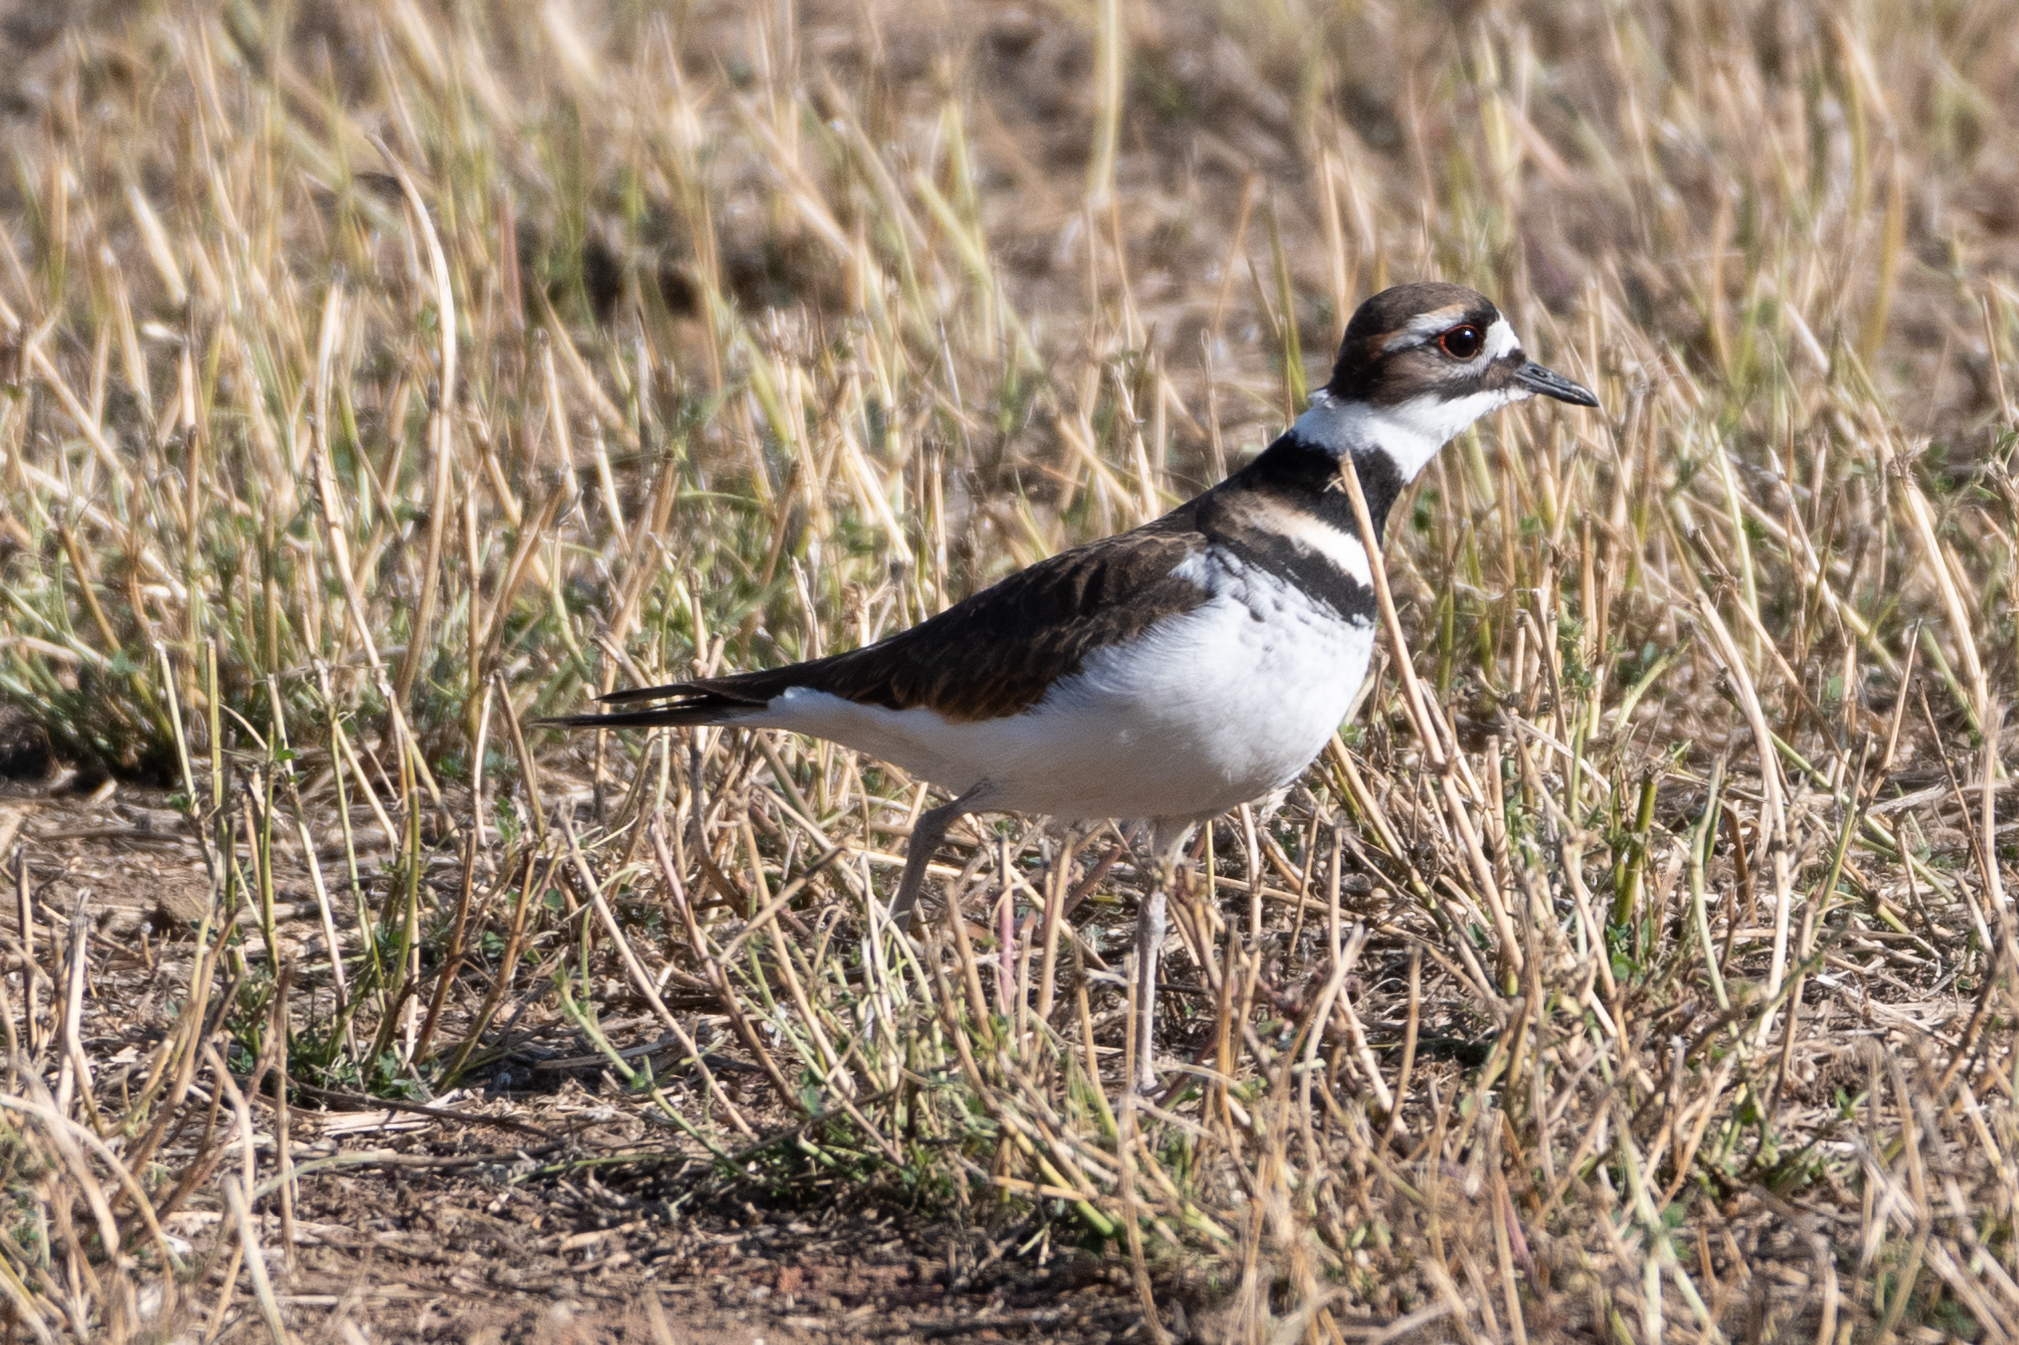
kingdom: Animalia
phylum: Chordata
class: Aves
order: Charadriiformes
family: Charadriidae
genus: Charadrius
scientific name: Charadrius vociferus
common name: Killdeer
